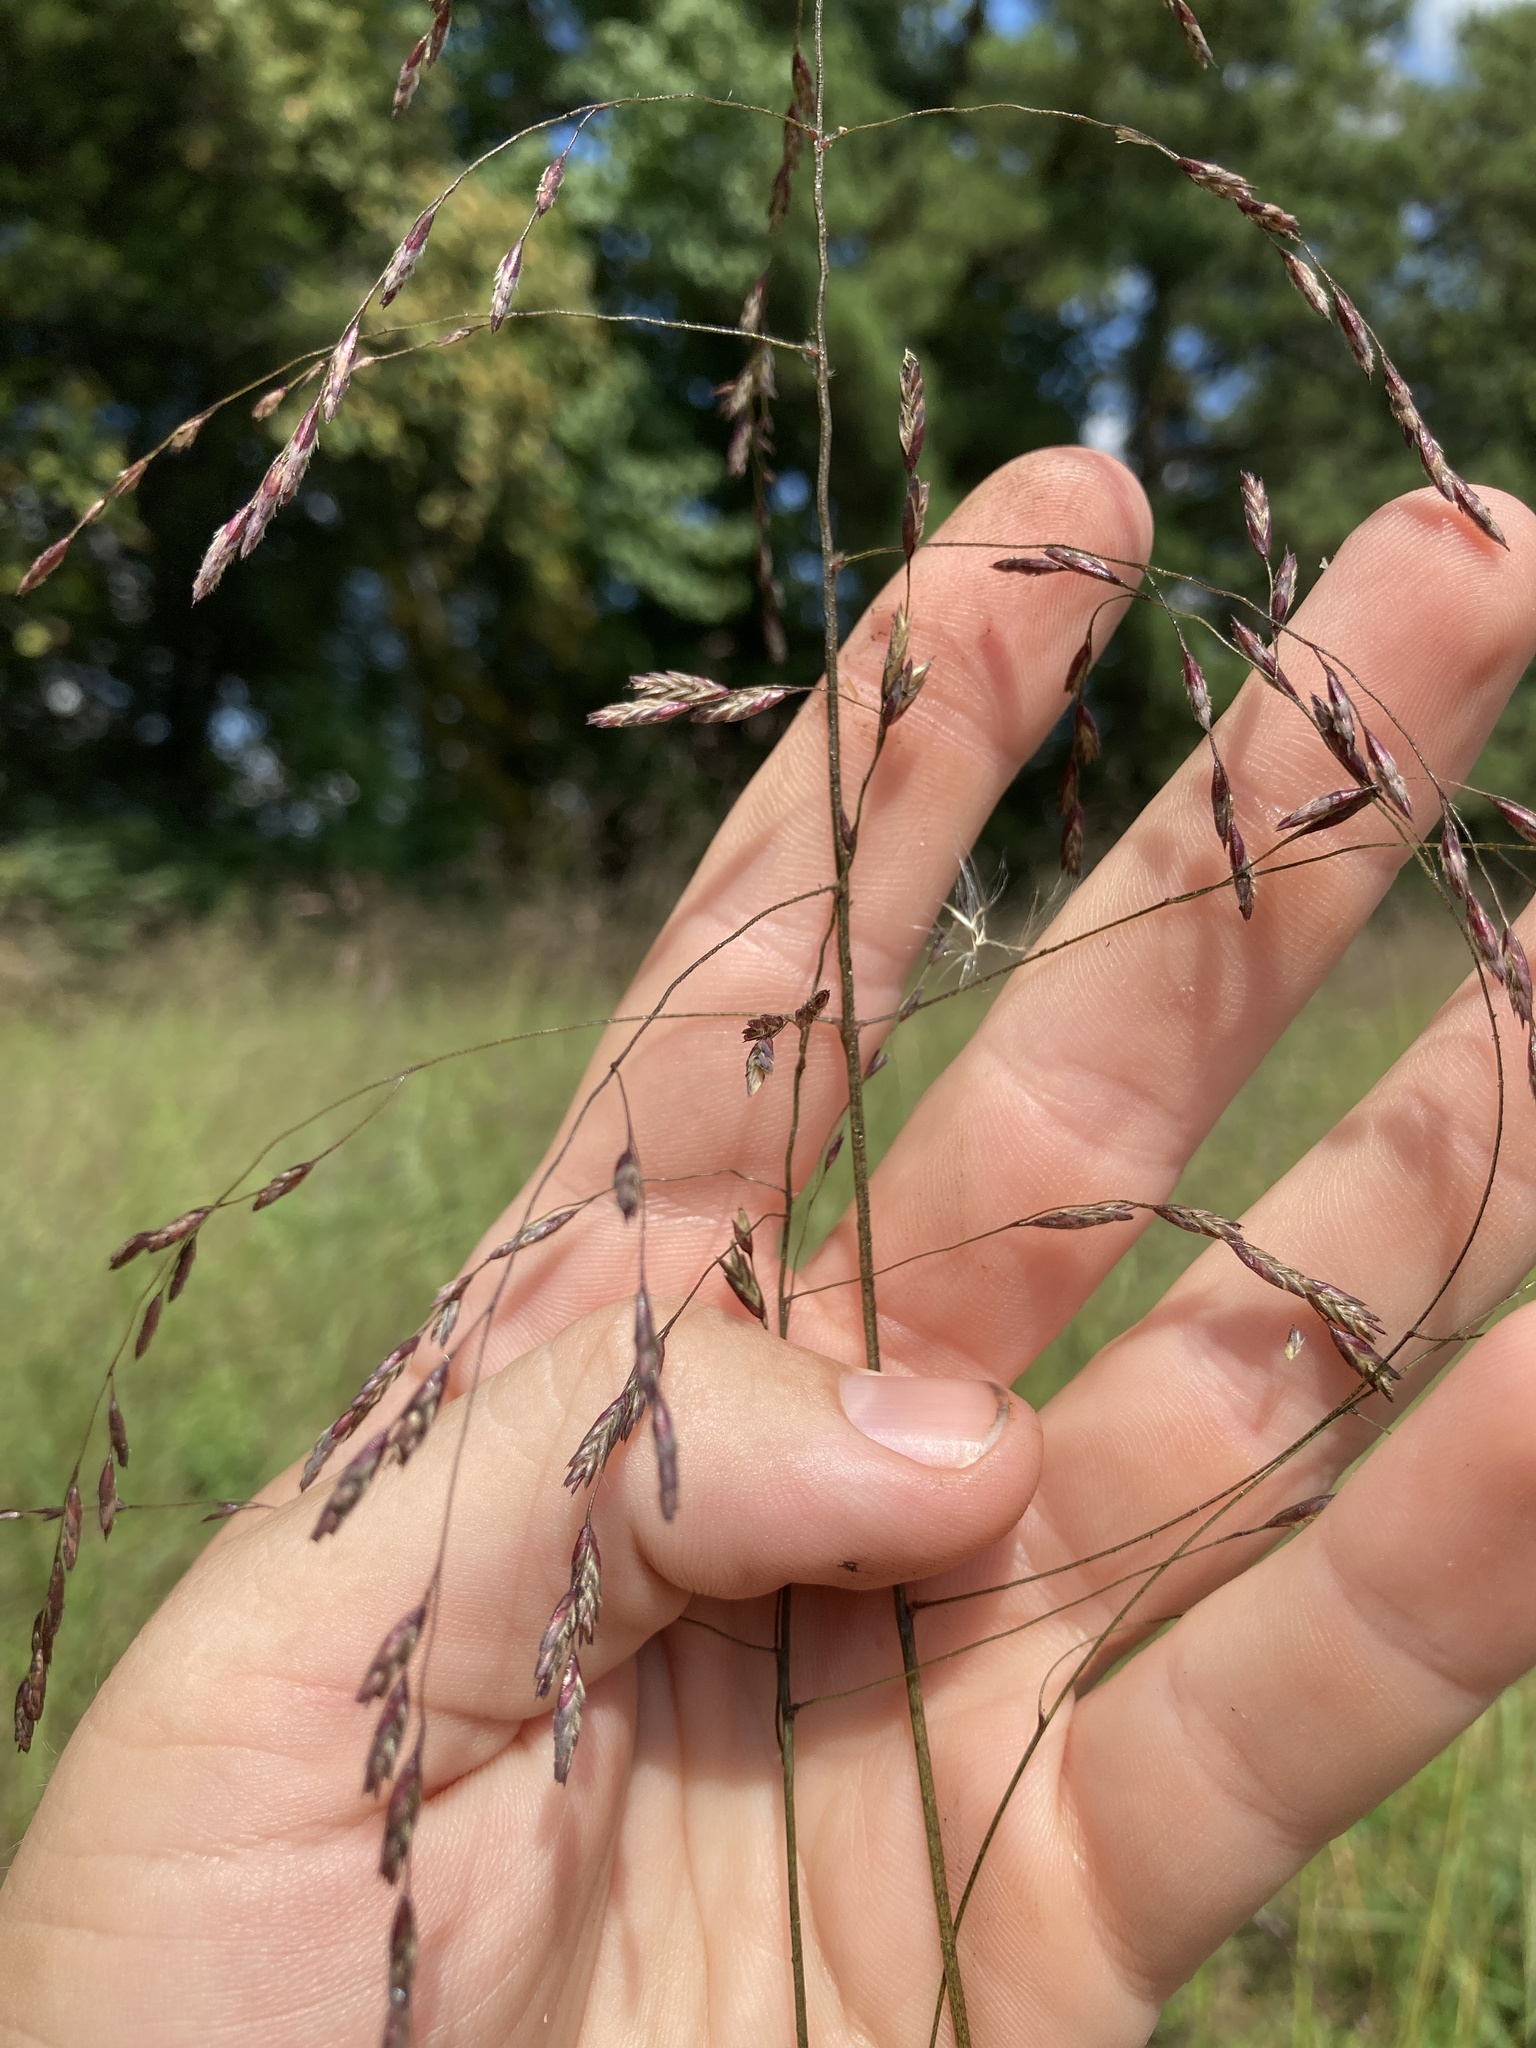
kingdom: Plantae
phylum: Tracheophyta
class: Liliopsida
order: Poales
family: Poaceae
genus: Tridens
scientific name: Tridens flavus
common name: Purpletop
